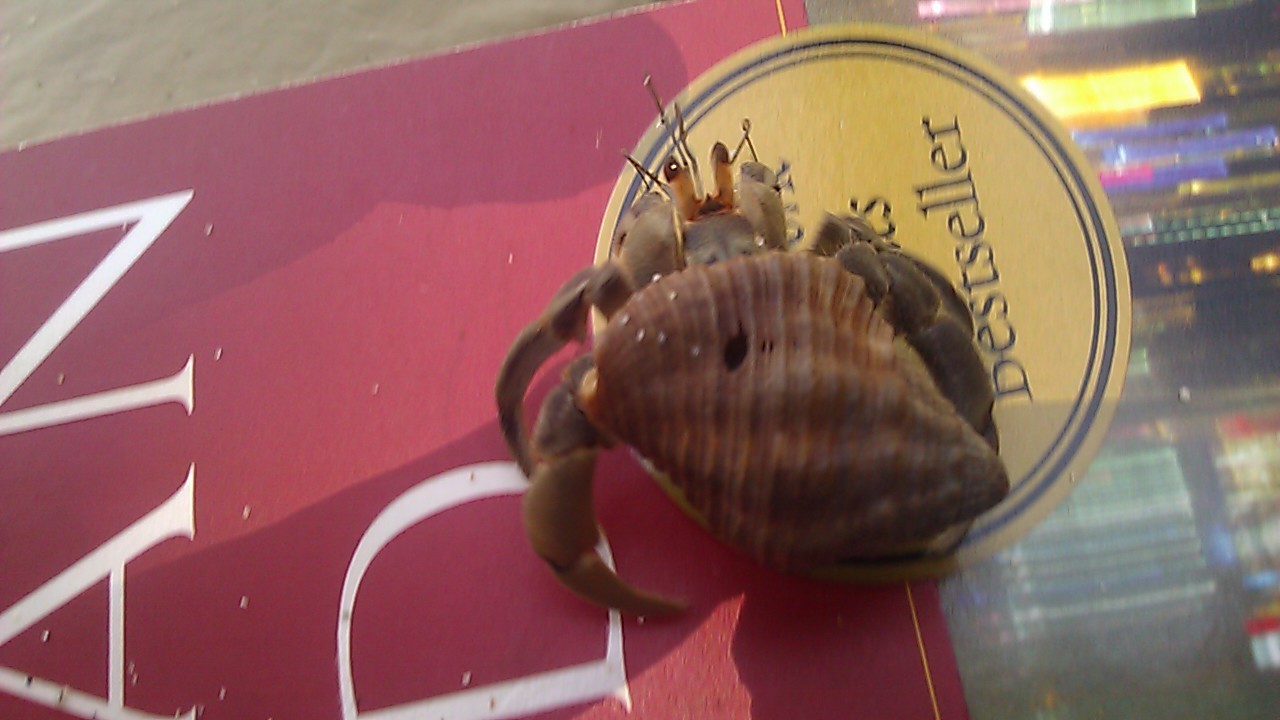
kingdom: Animalia
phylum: Arthropoda
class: Malacostraca
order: Decapoda
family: Coenobitidae
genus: Coenobita
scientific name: Coenobita compressus
